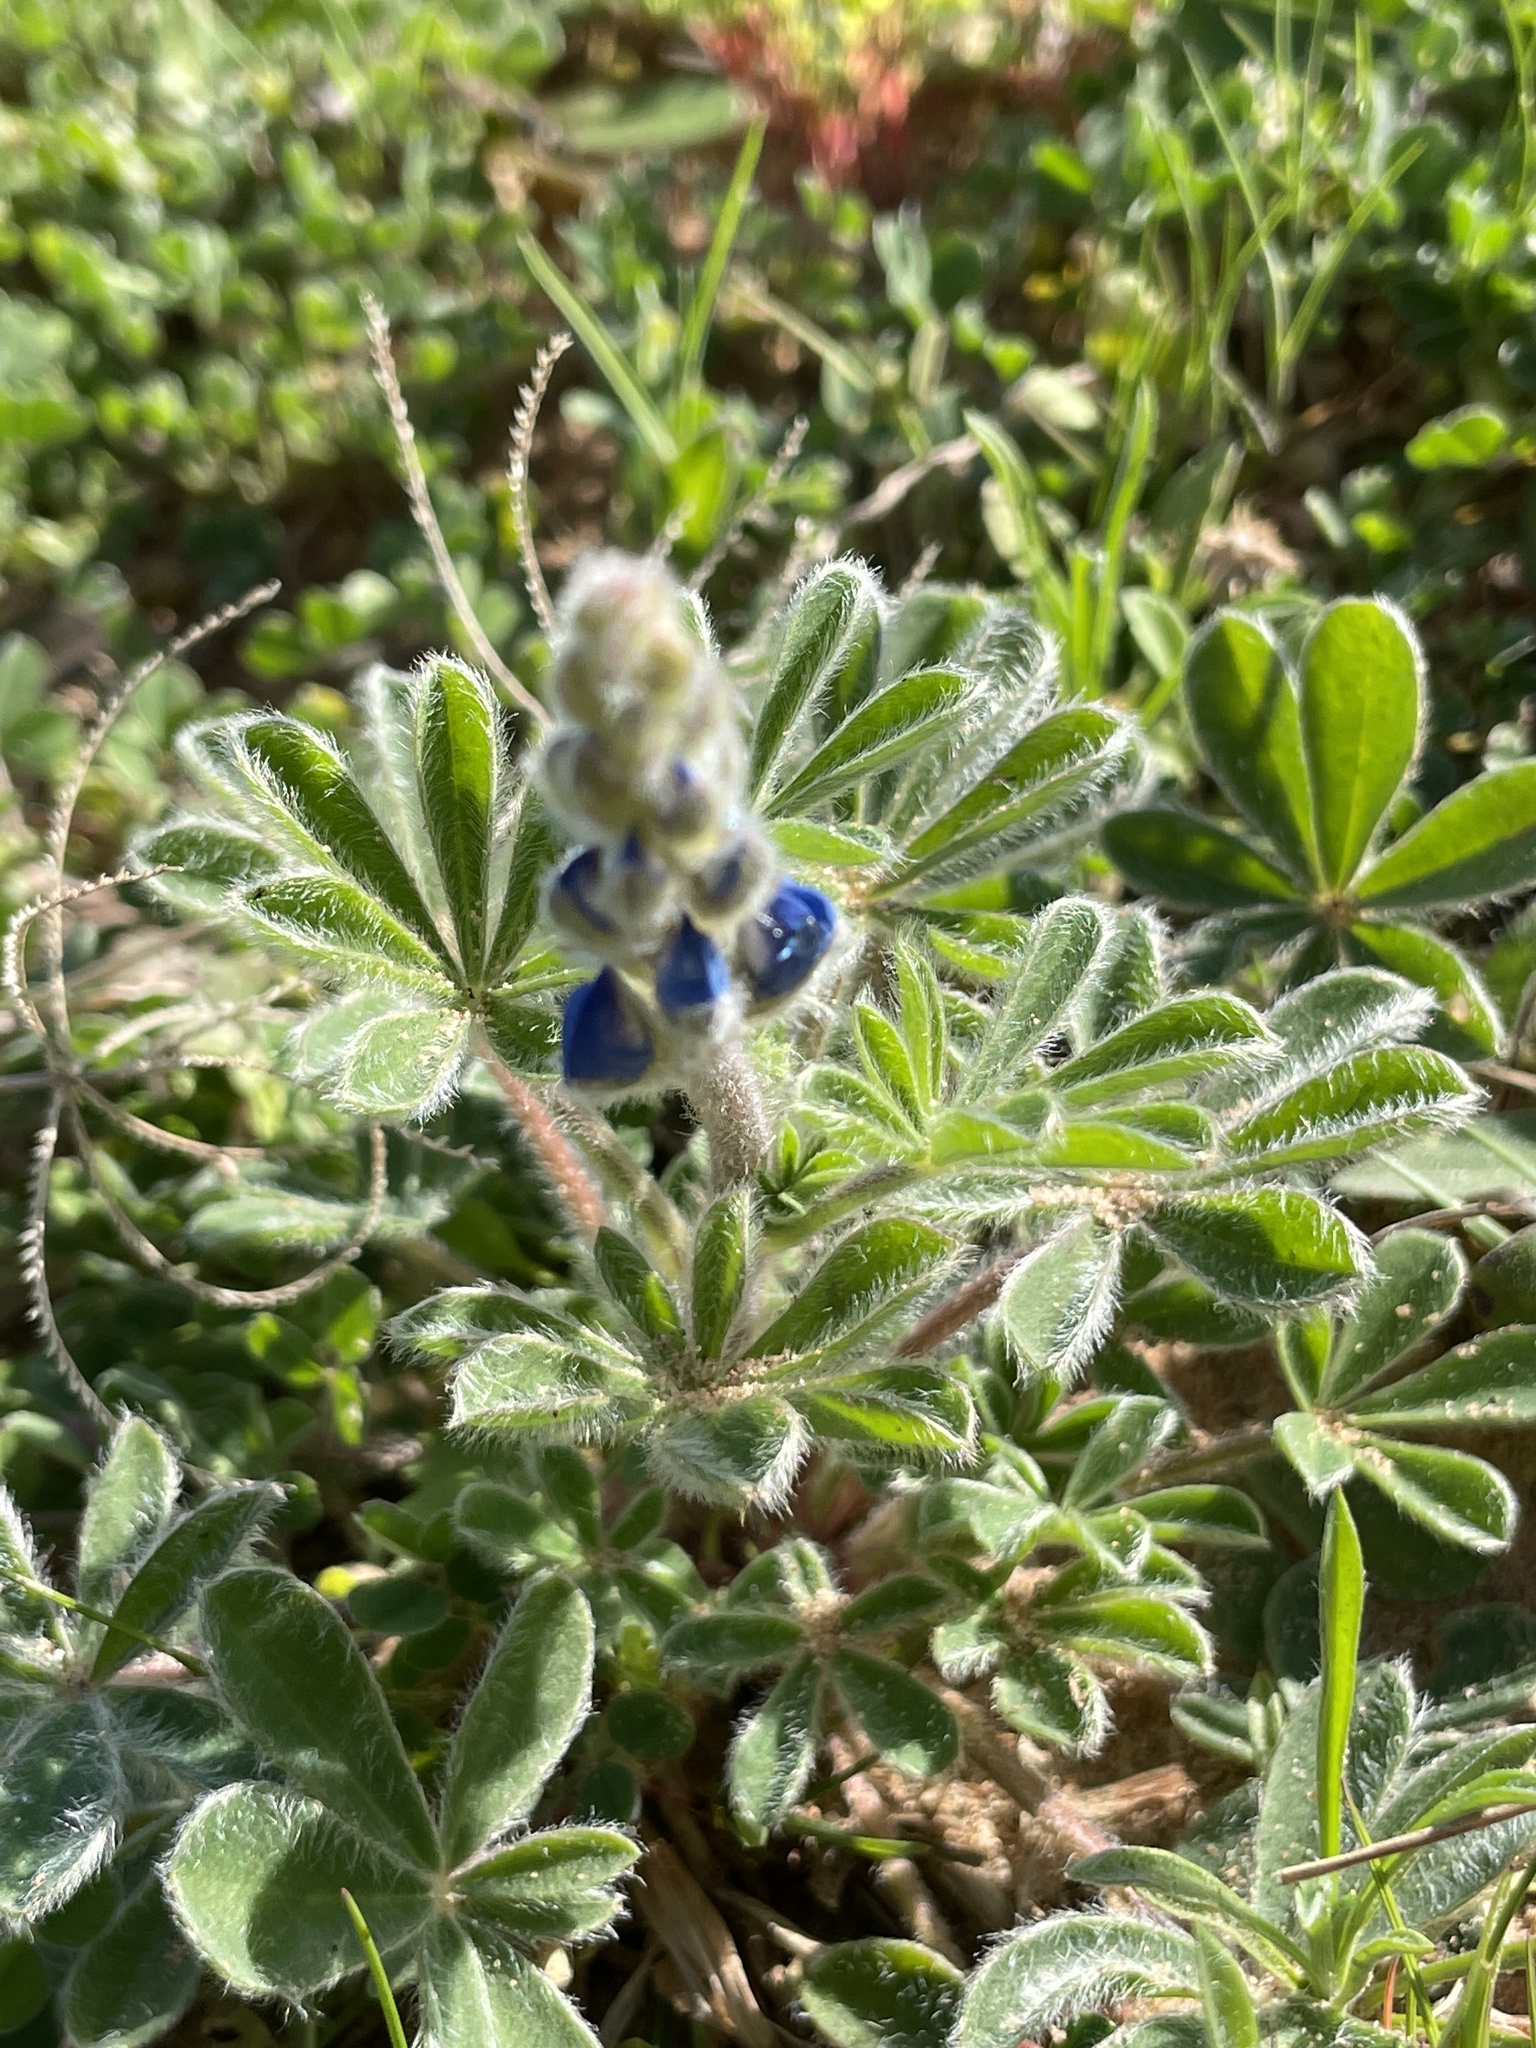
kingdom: Plantae
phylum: Tracheophyta
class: Magnoliopsida
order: Fabales
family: Fabaceae
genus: Lupinus
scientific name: Lupinus subcarnosus
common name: Texas bluebonnet
